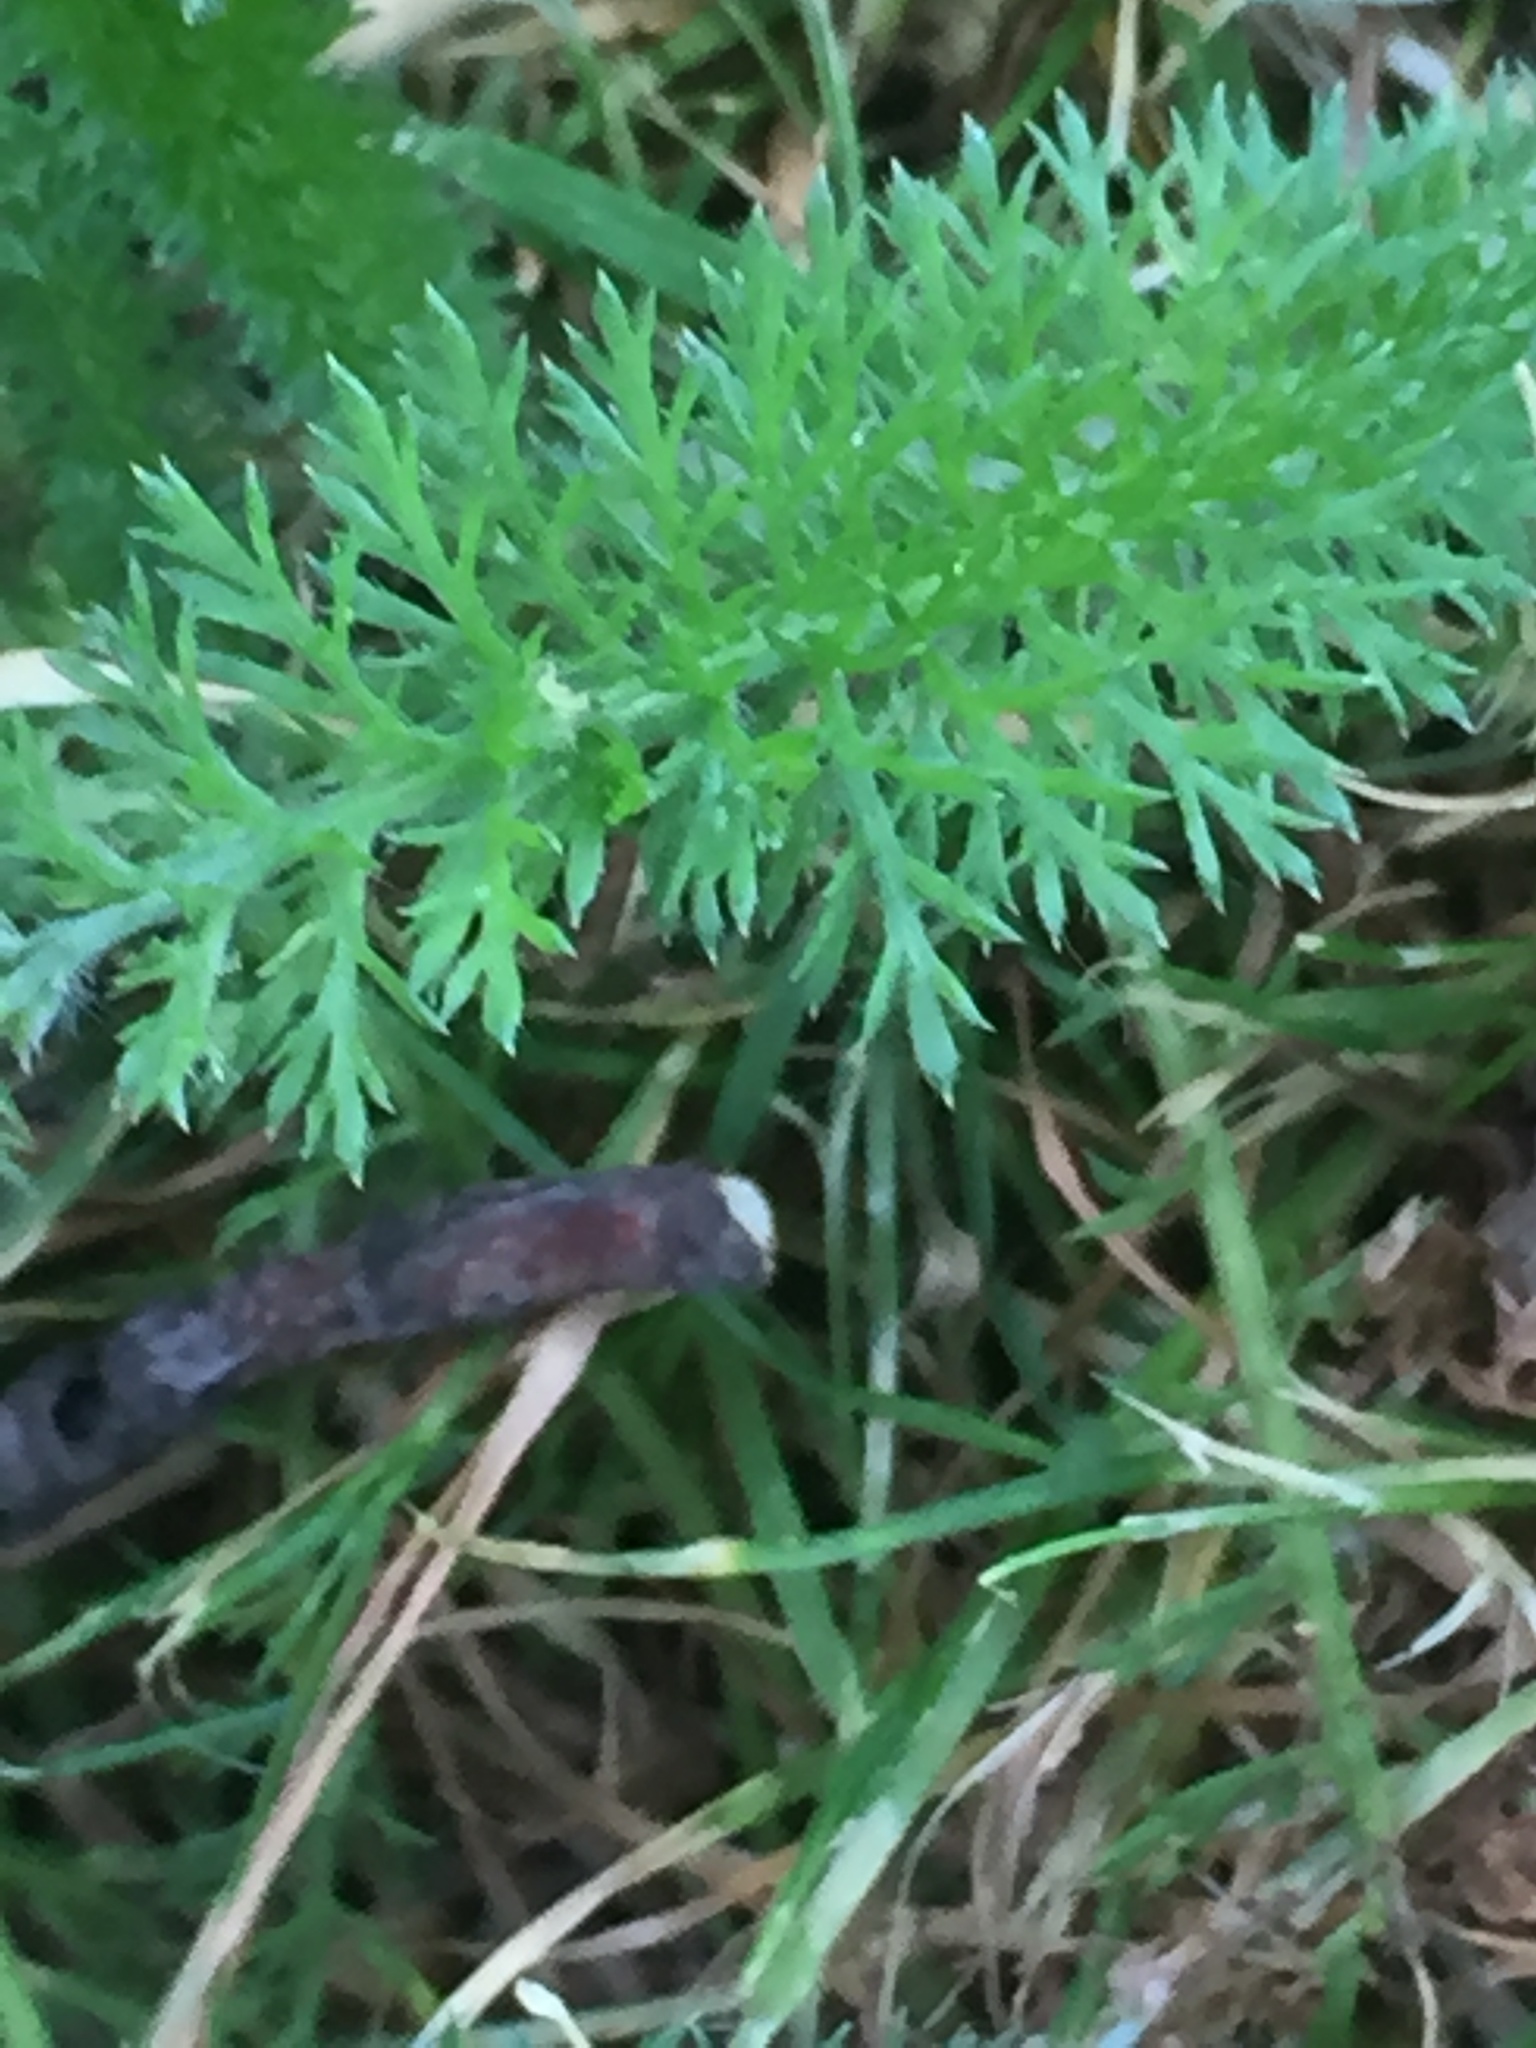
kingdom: Plantae
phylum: Tracheophyta
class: Magnoliopsida
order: Asterales
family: Asteraceae
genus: Achillea
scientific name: Achillea millefolium
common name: Yarrow
